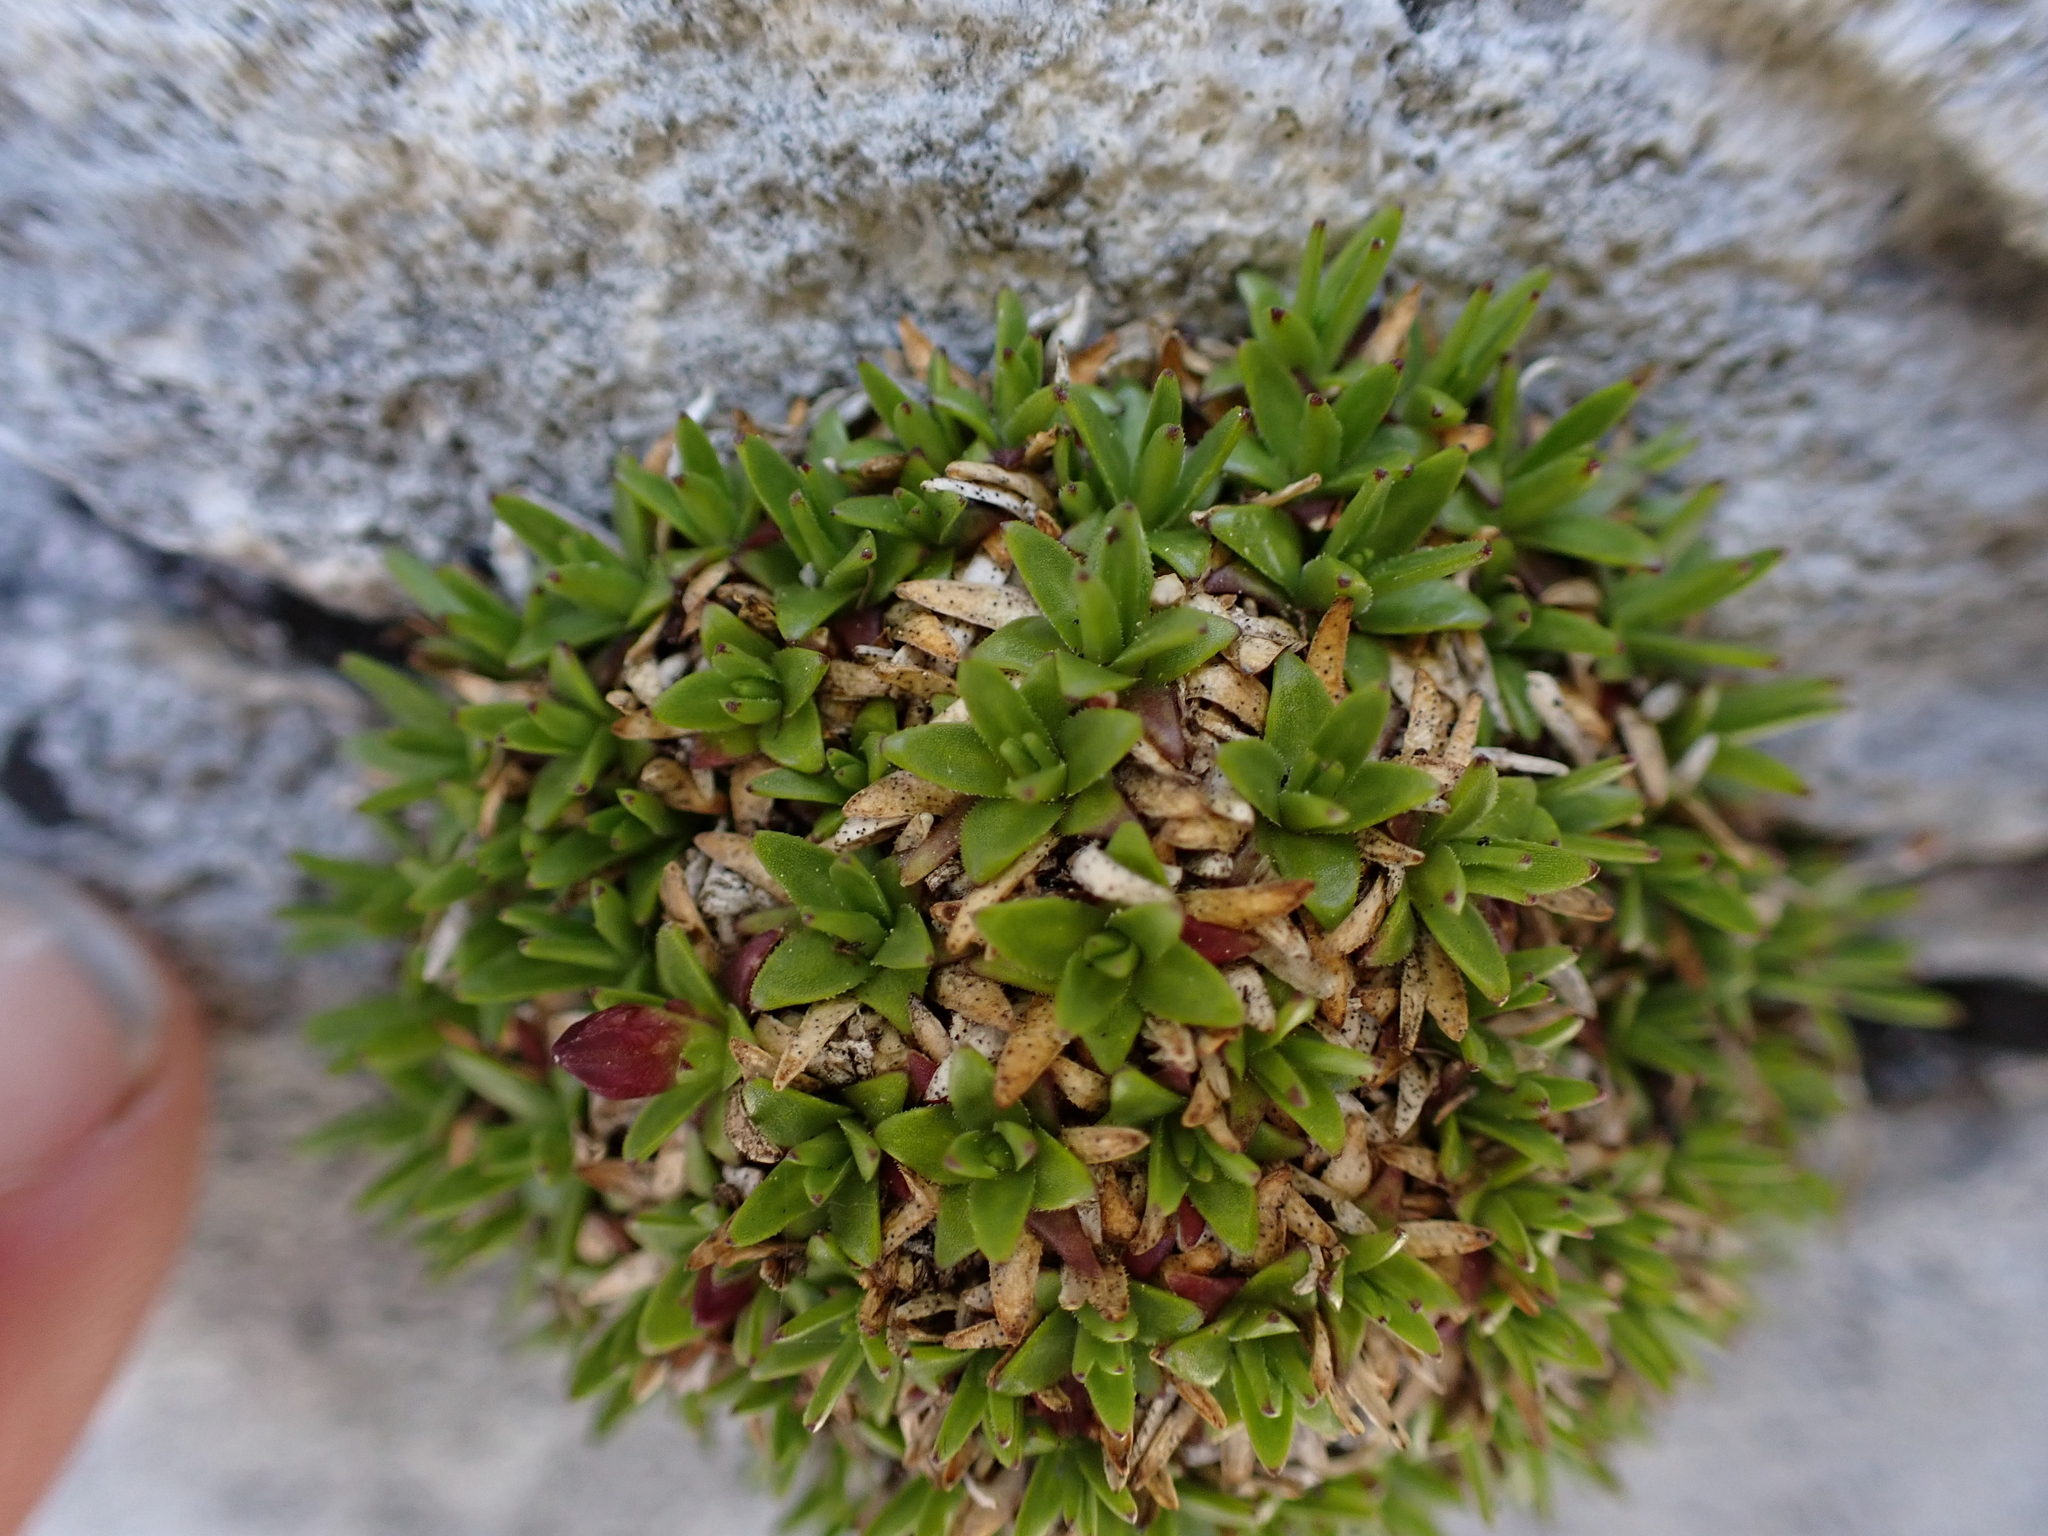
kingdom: Plantae
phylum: Tracheophyta
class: Magnoliopsida
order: Caryophyllales
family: Caryophyllaceae
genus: Silene
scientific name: Silene acaulis
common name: Moss campion
